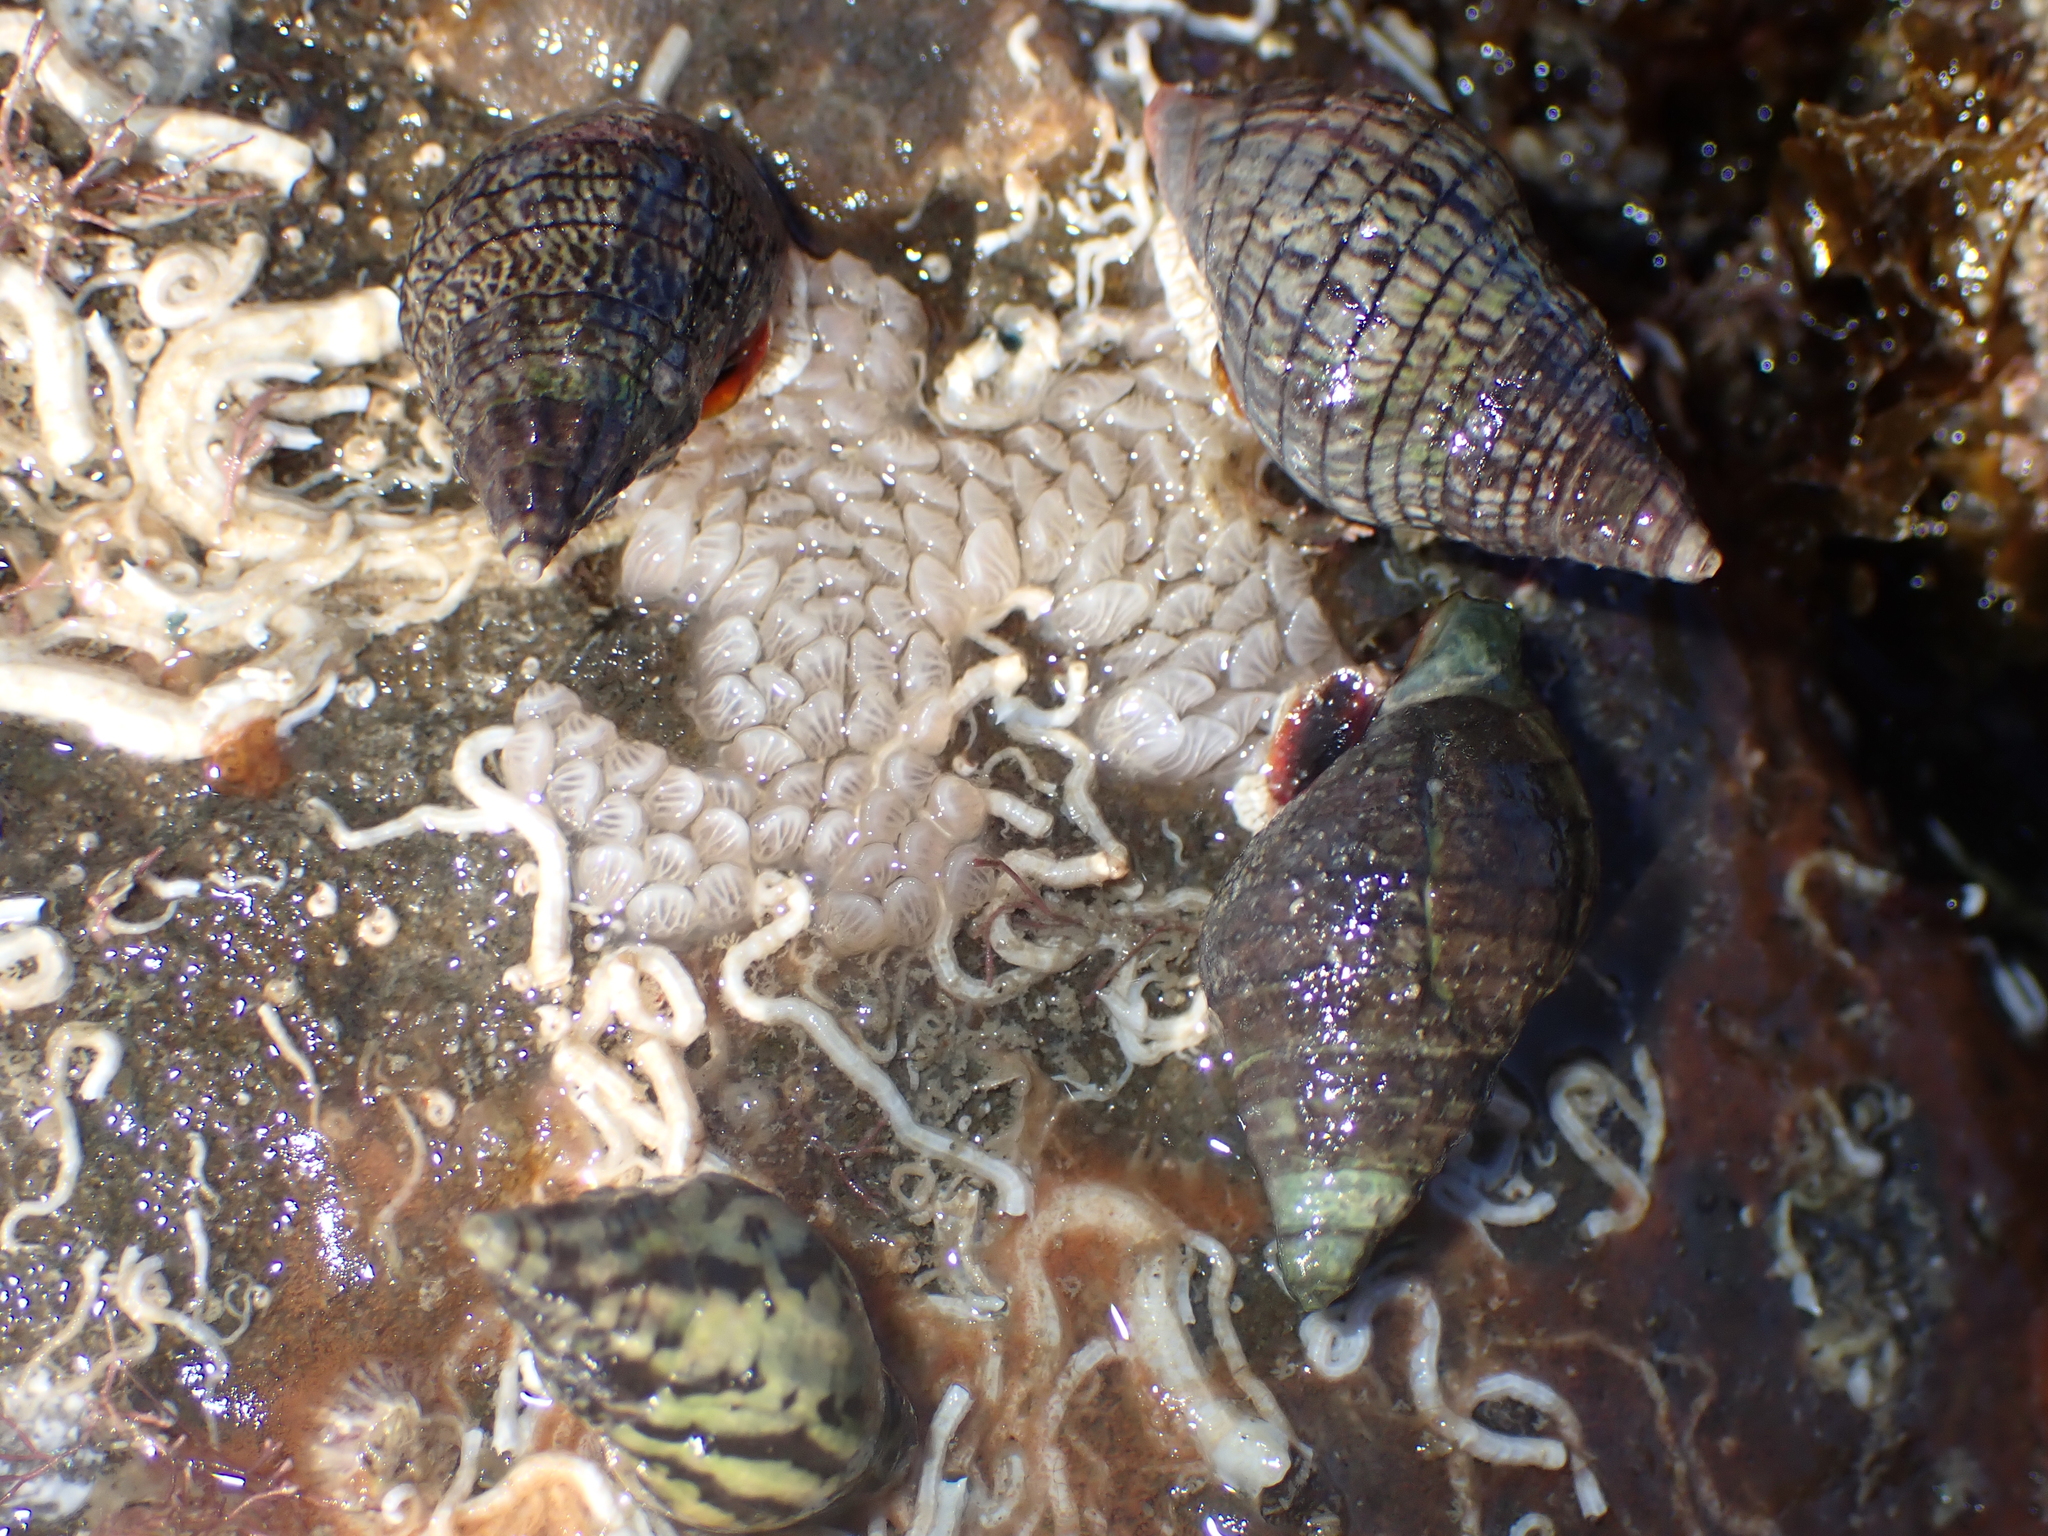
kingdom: Animalia
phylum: Mollusca
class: Gastropoda
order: Neogastropoda
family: Cominellidae
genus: Cominella
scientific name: Cominella virgata
